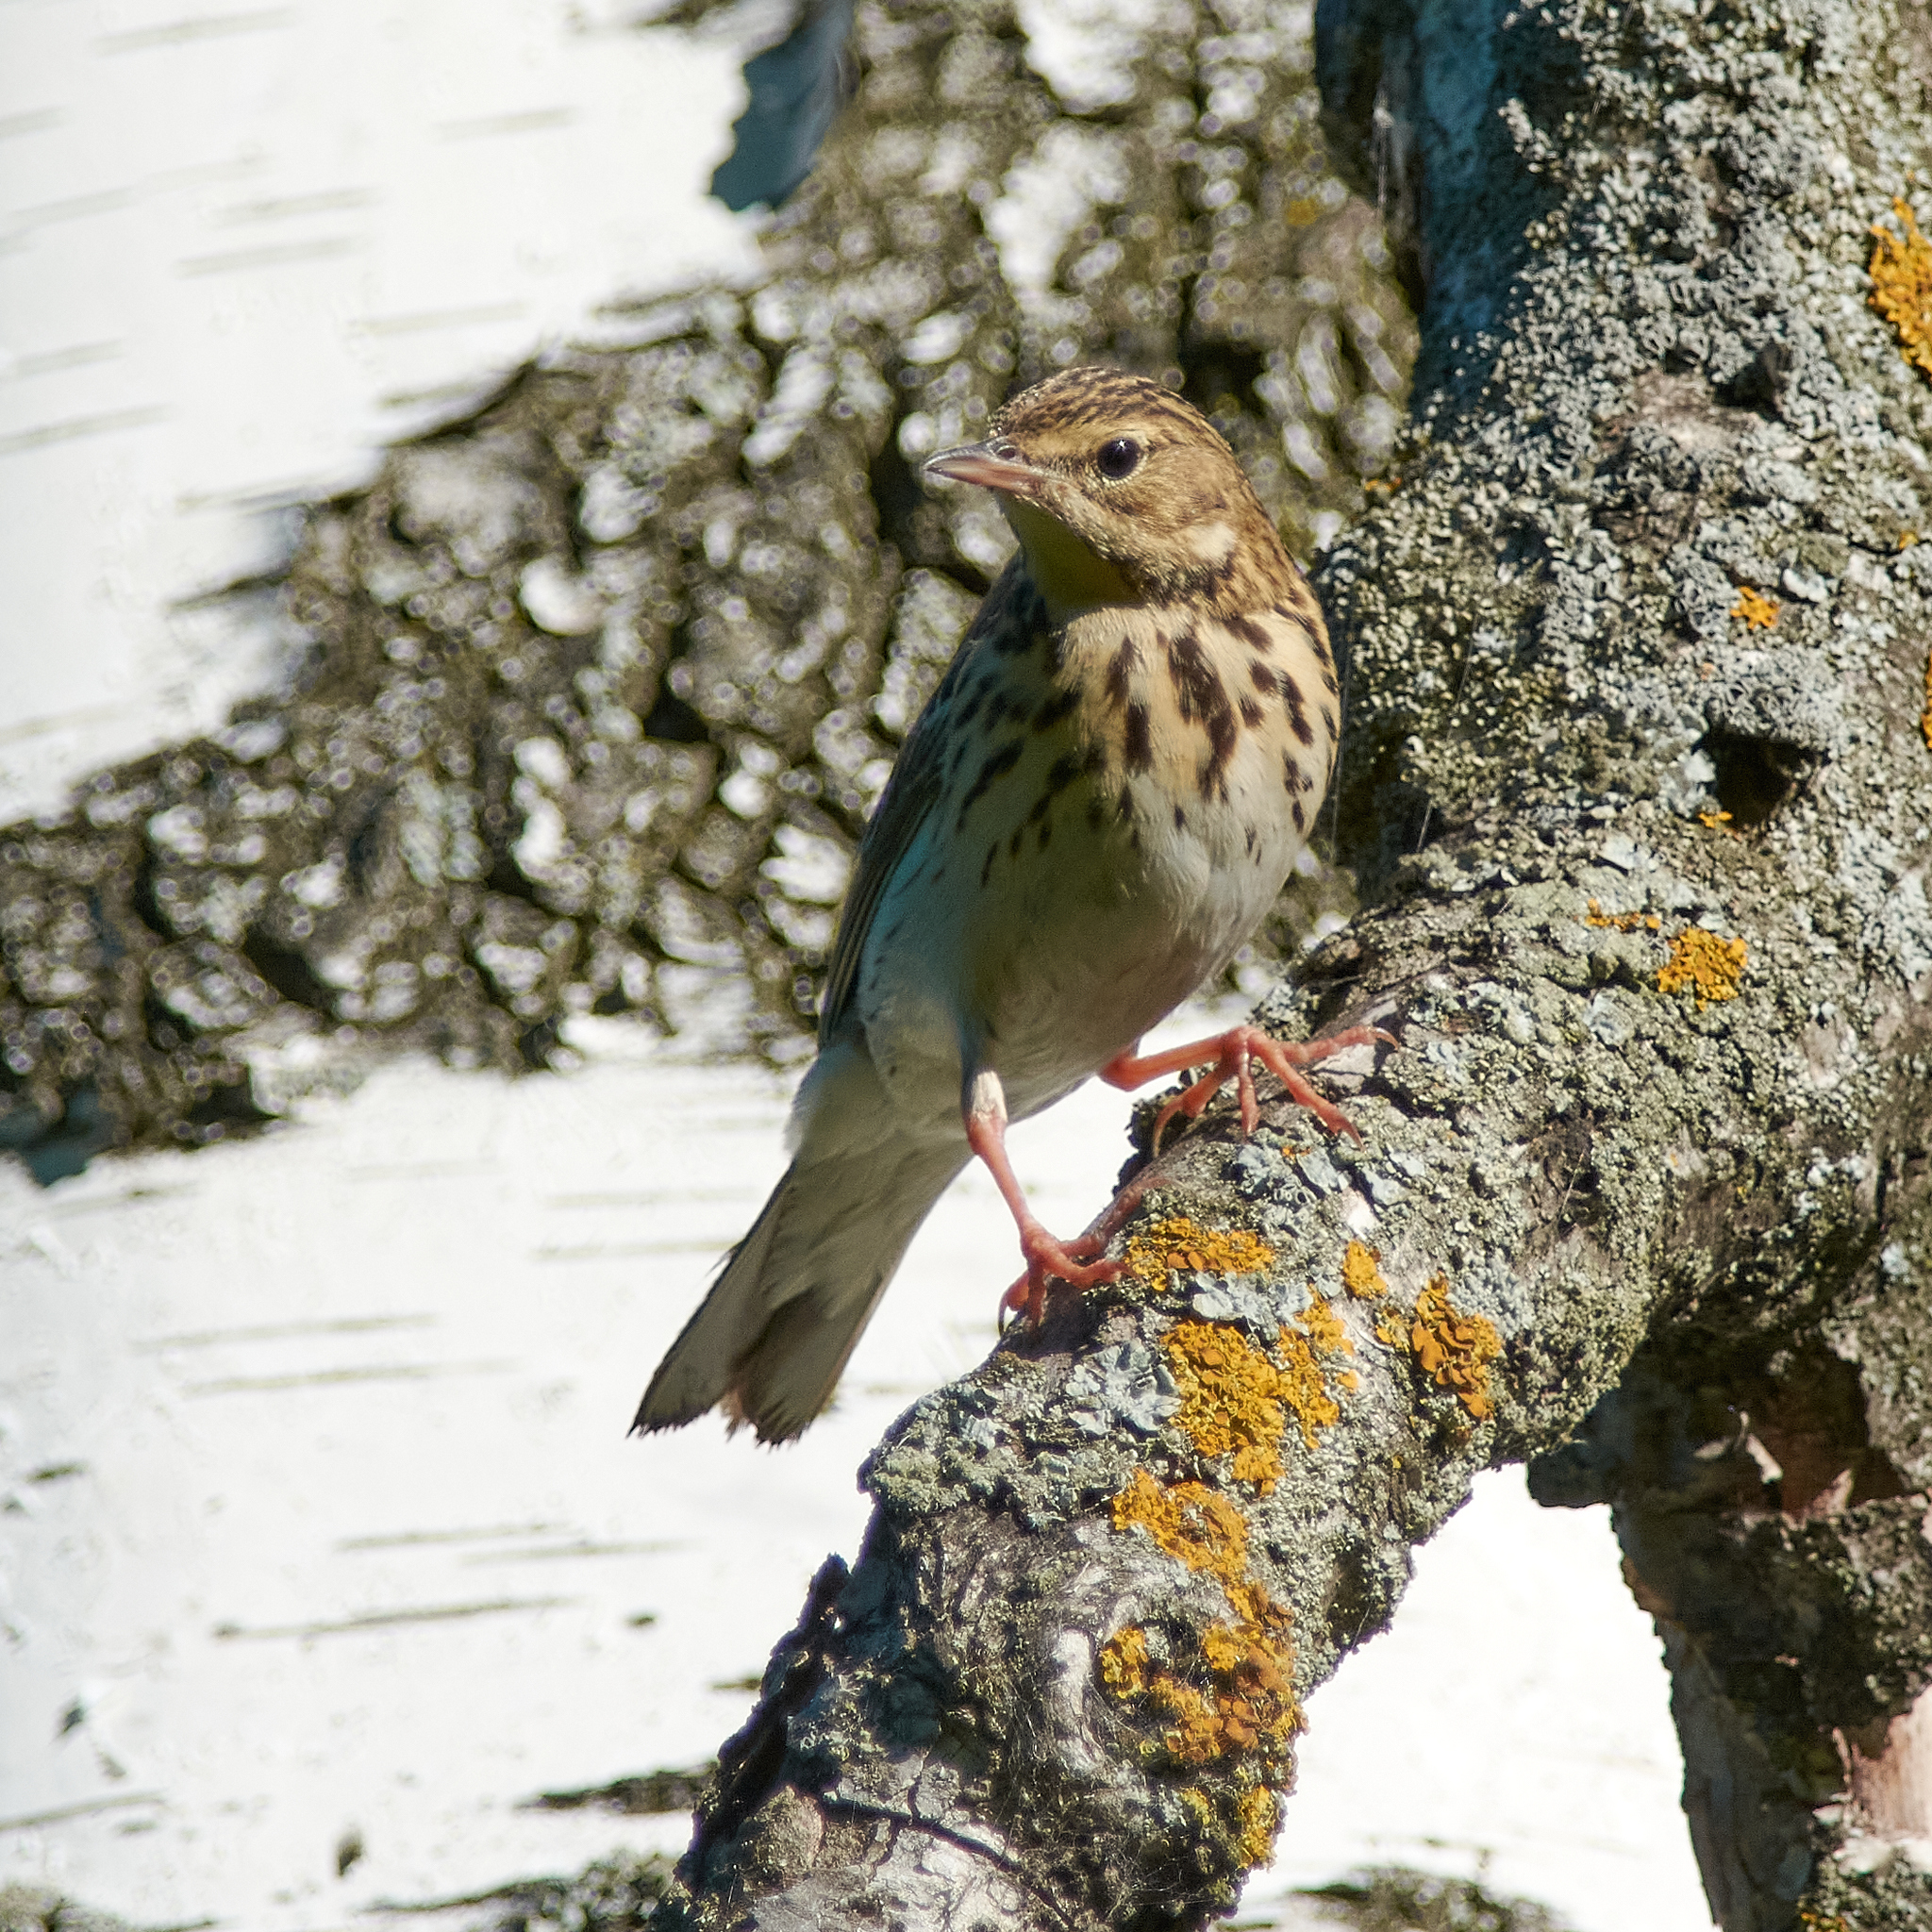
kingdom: Animalia
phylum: Chordata
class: Aves
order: Passeriformes
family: Motacillidae
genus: Anthus
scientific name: Anthus trivialis
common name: Tree pipit
